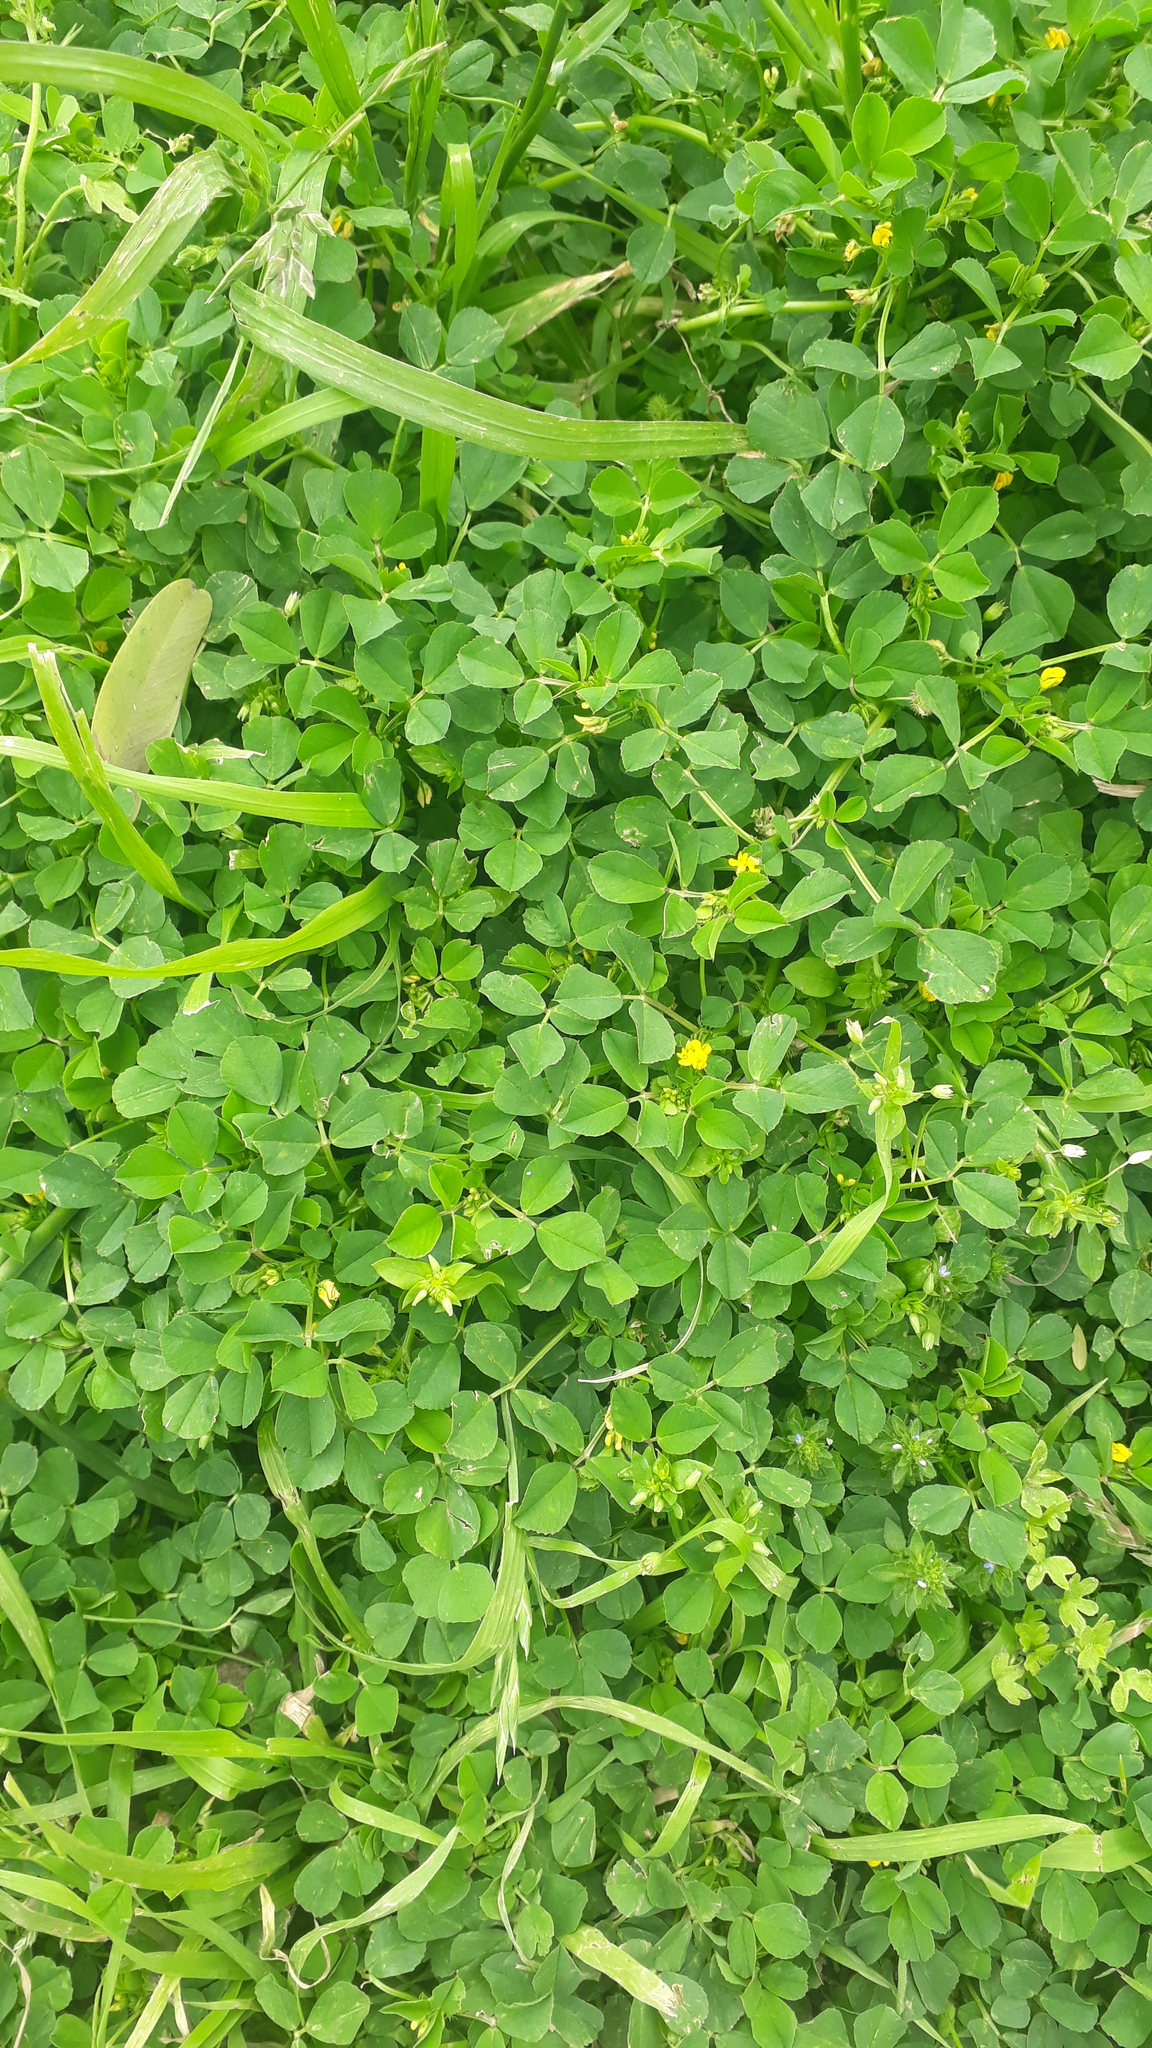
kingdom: Plantae
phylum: Tracheophyta
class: Magnoliopsida
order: Fabales
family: Fabaceae
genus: Medicago
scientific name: Medicago polymorpha
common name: Burclover
